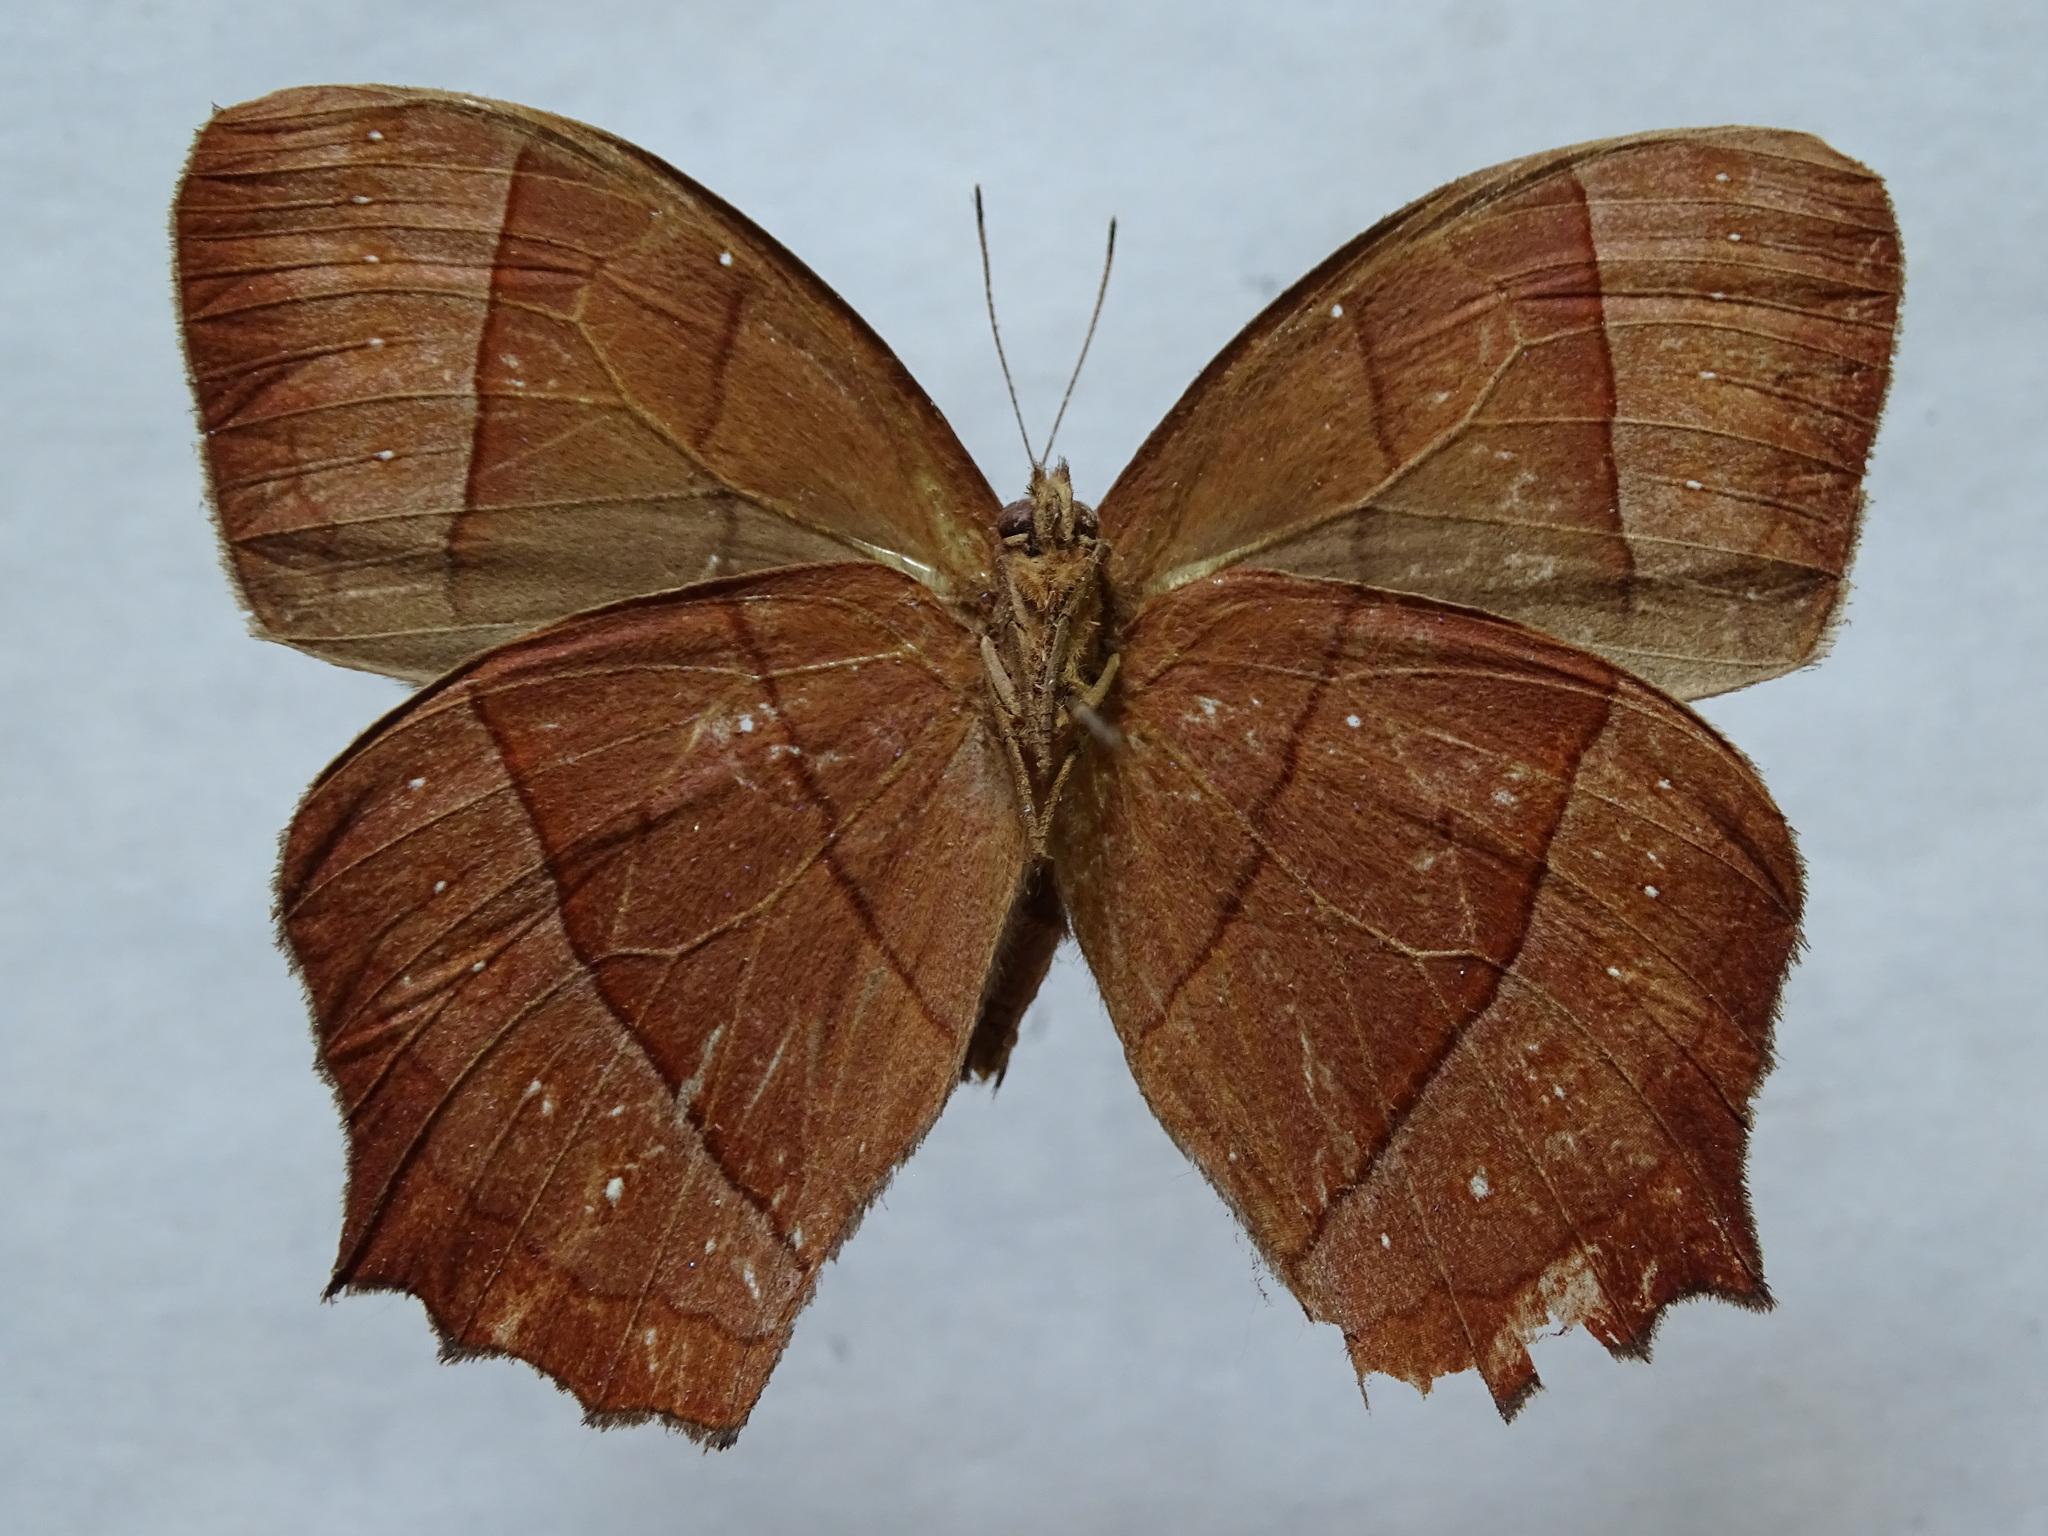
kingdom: Animalia
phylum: Arthropoda
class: Insecta
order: Lepidoptera
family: Nymphalidae
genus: Taygetis
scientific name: Taygetis virgilia
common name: Stub-tailed satyr
